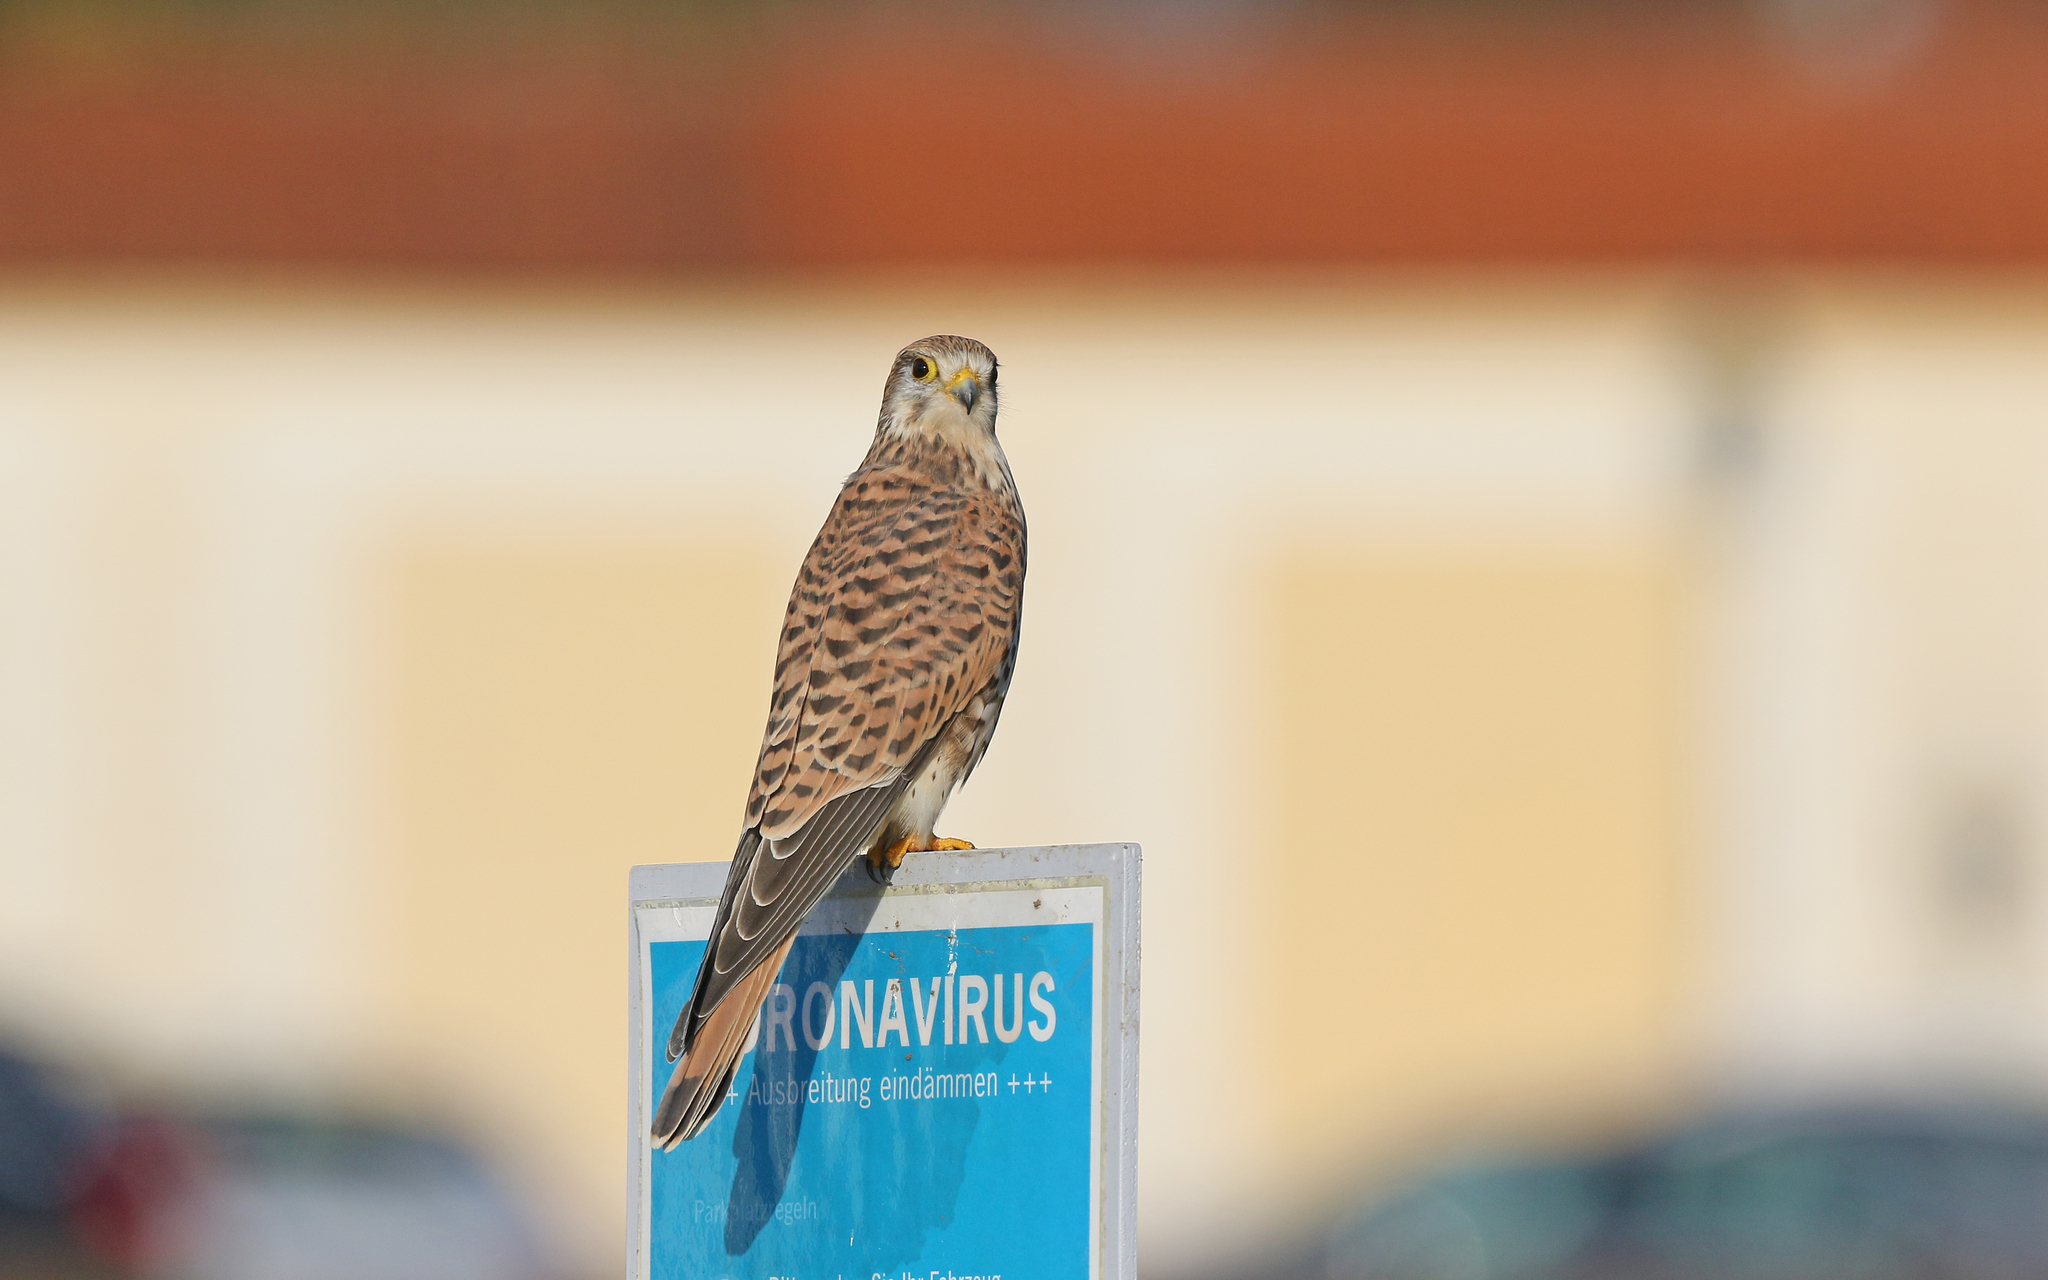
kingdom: Animalia
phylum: Chordata
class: Aves
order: Falconiformes
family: Falconidae
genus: Falco
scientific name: Falco tinnunculus
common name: Common kestrel
